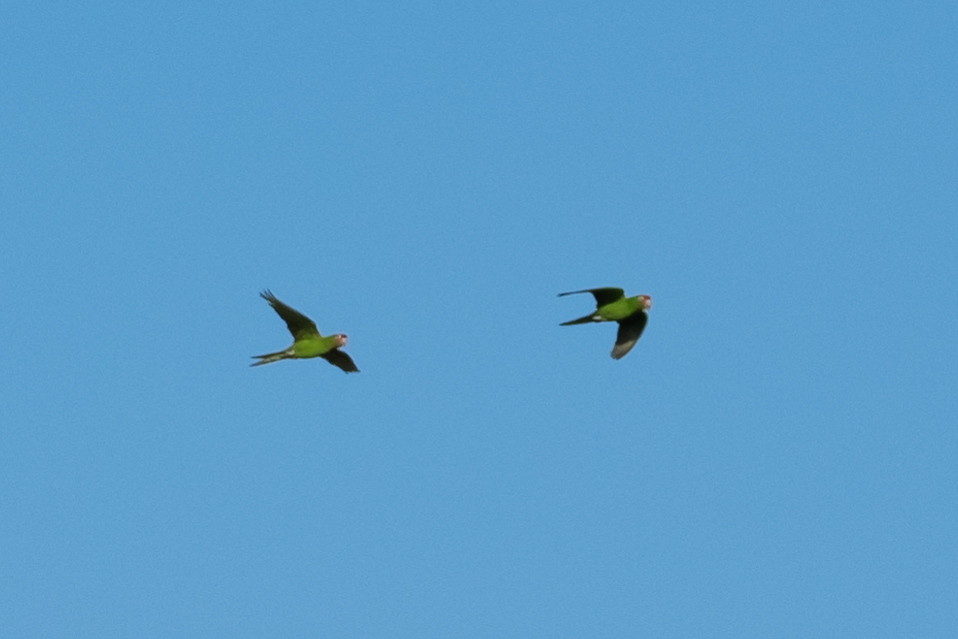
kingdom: Animalia
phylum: Chordata
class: Aves
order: Psittaciformes
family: Psittacidae
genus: Aratinga
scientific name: Aratinga mitrata
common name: Mitred parakeet
